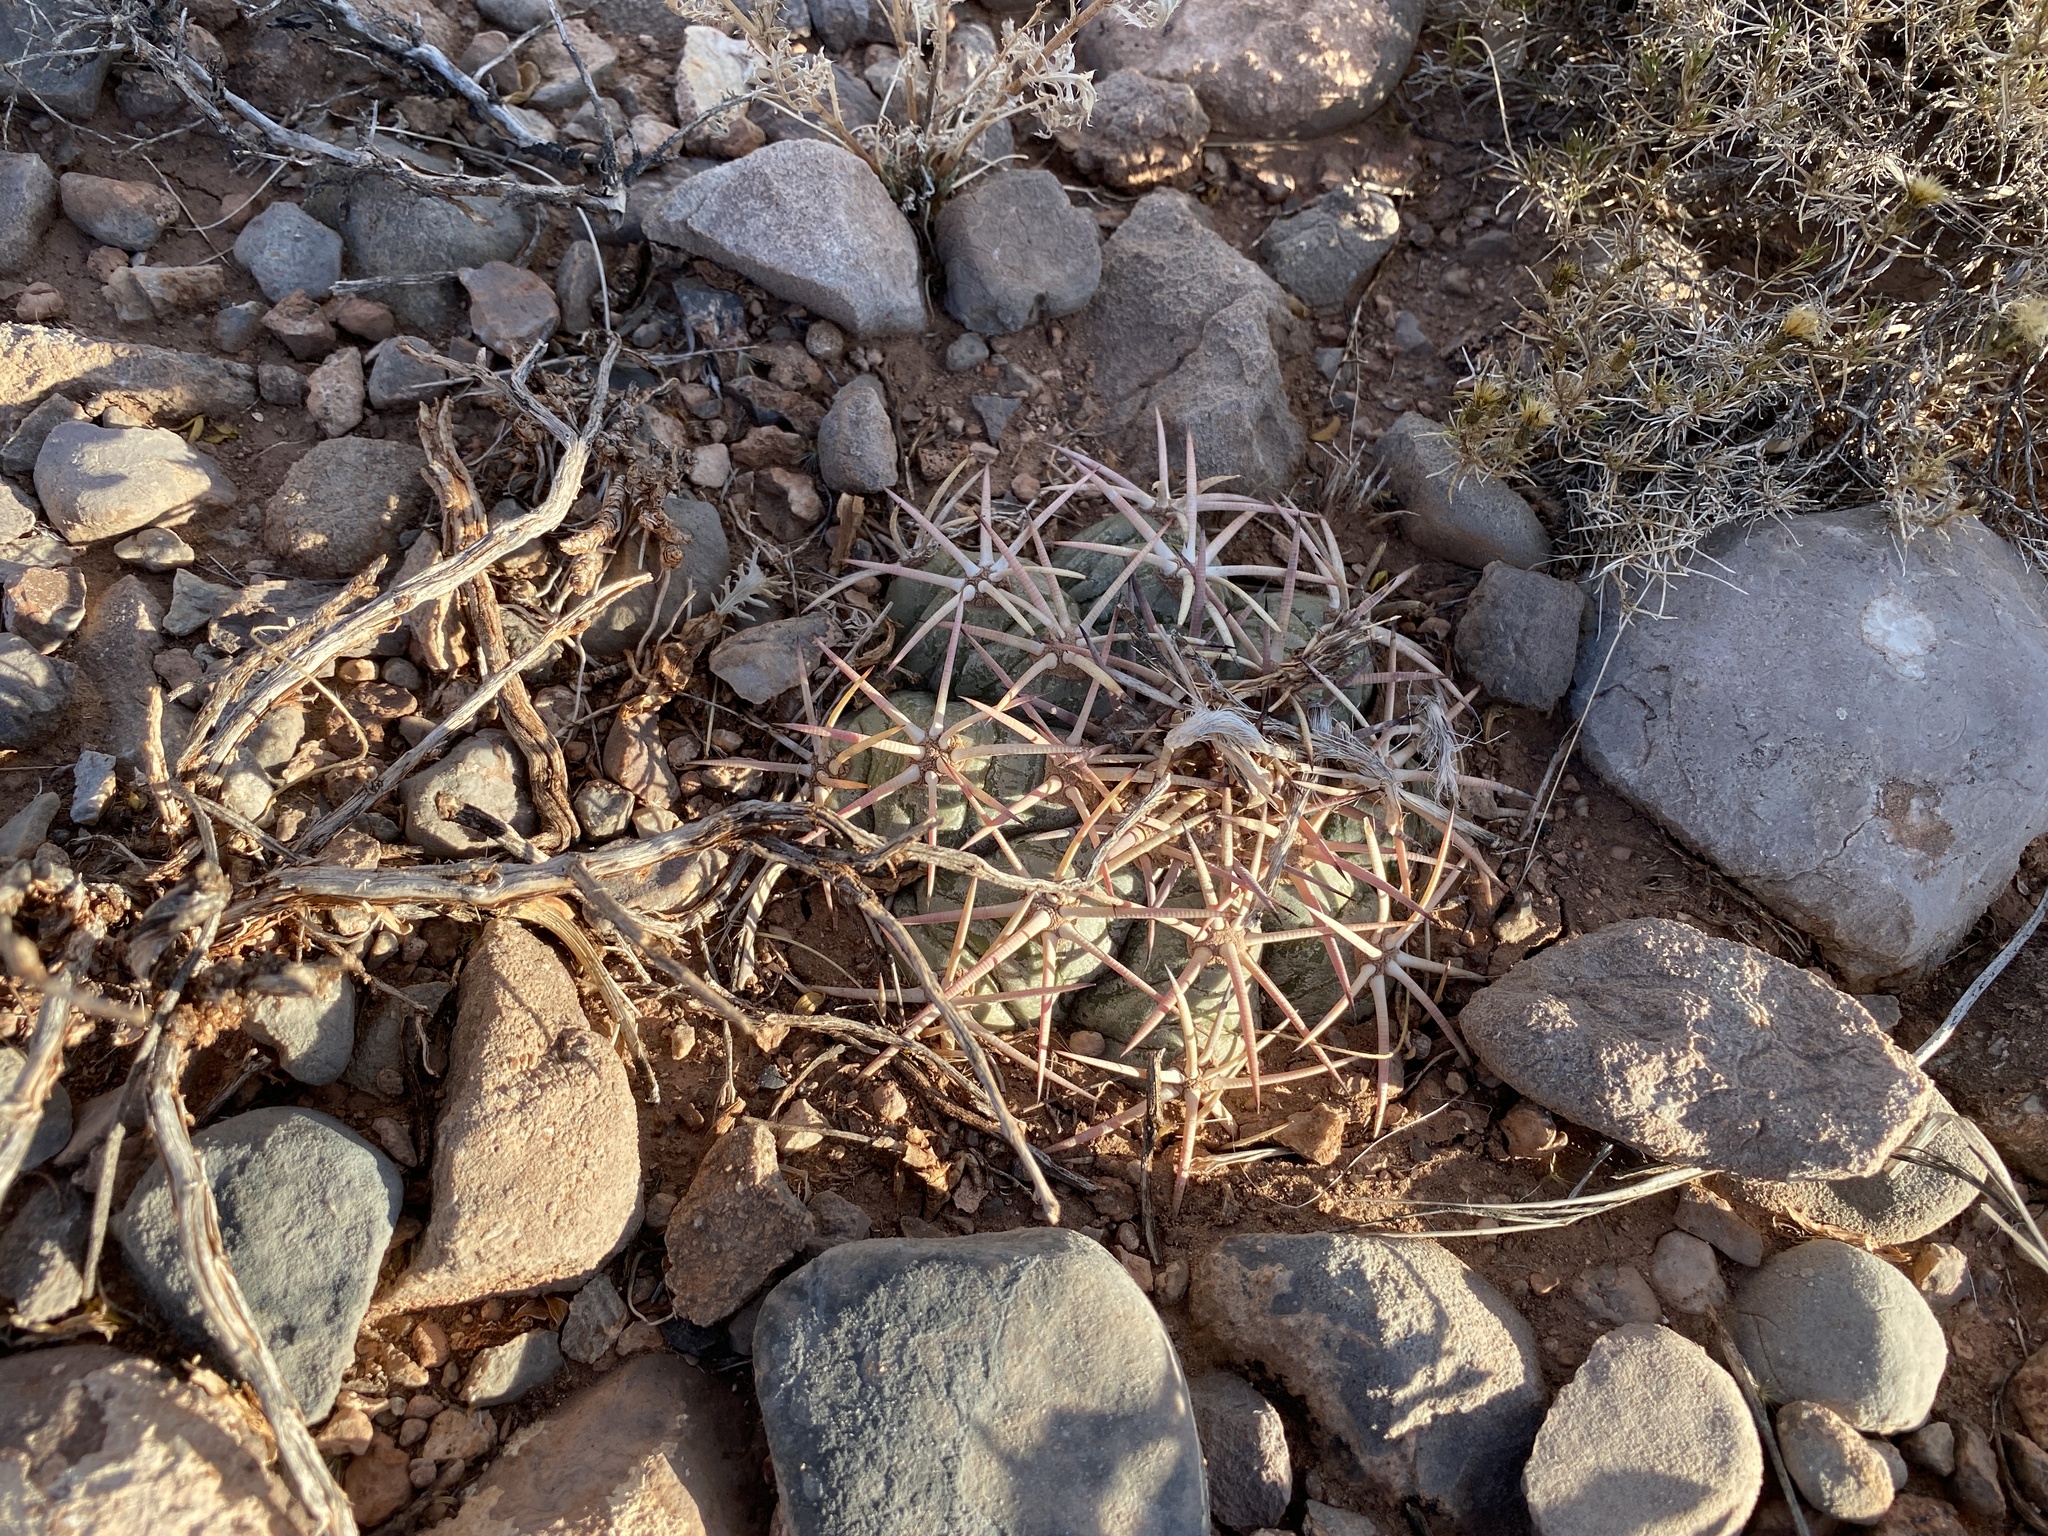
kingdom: Plantae
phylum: Tracheophyta
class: Magnoliopsida
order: Caryophyllales
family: Cactaceae
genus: Echinocactus
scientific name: Echinocactus horizonthalonius
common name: Devilshead
